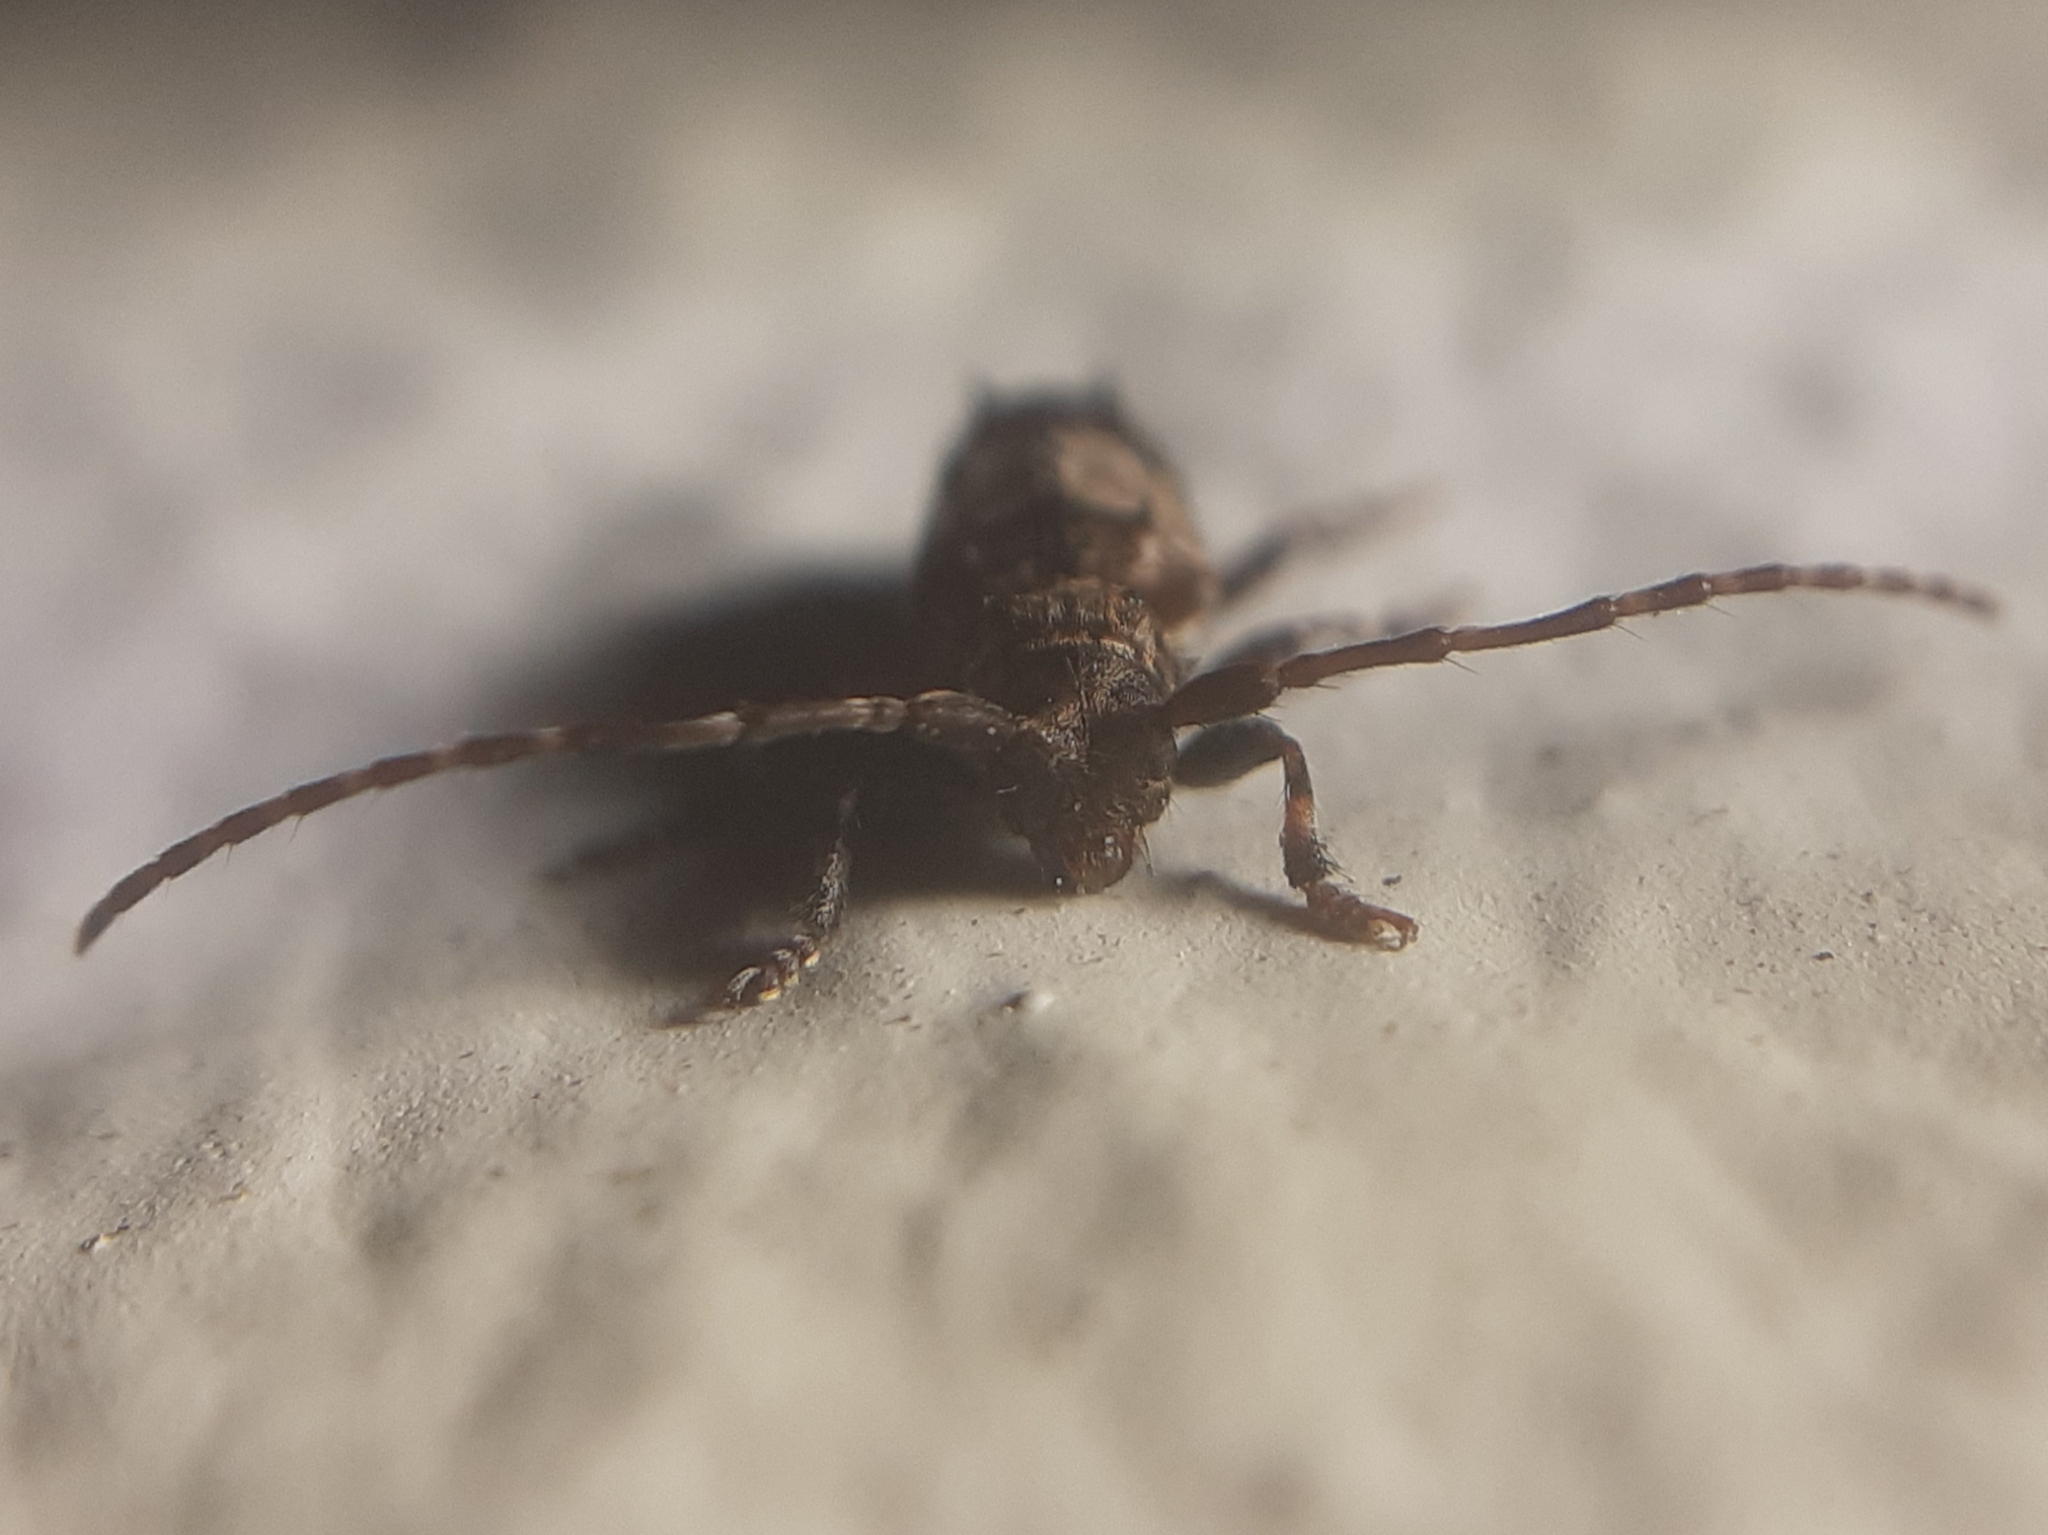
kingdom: Animalia
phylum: Arthropoda
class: Insecta
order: Coleoptera
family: Cerambycidae
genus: Pogonocherus
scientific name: Pogonocherus hispidus
